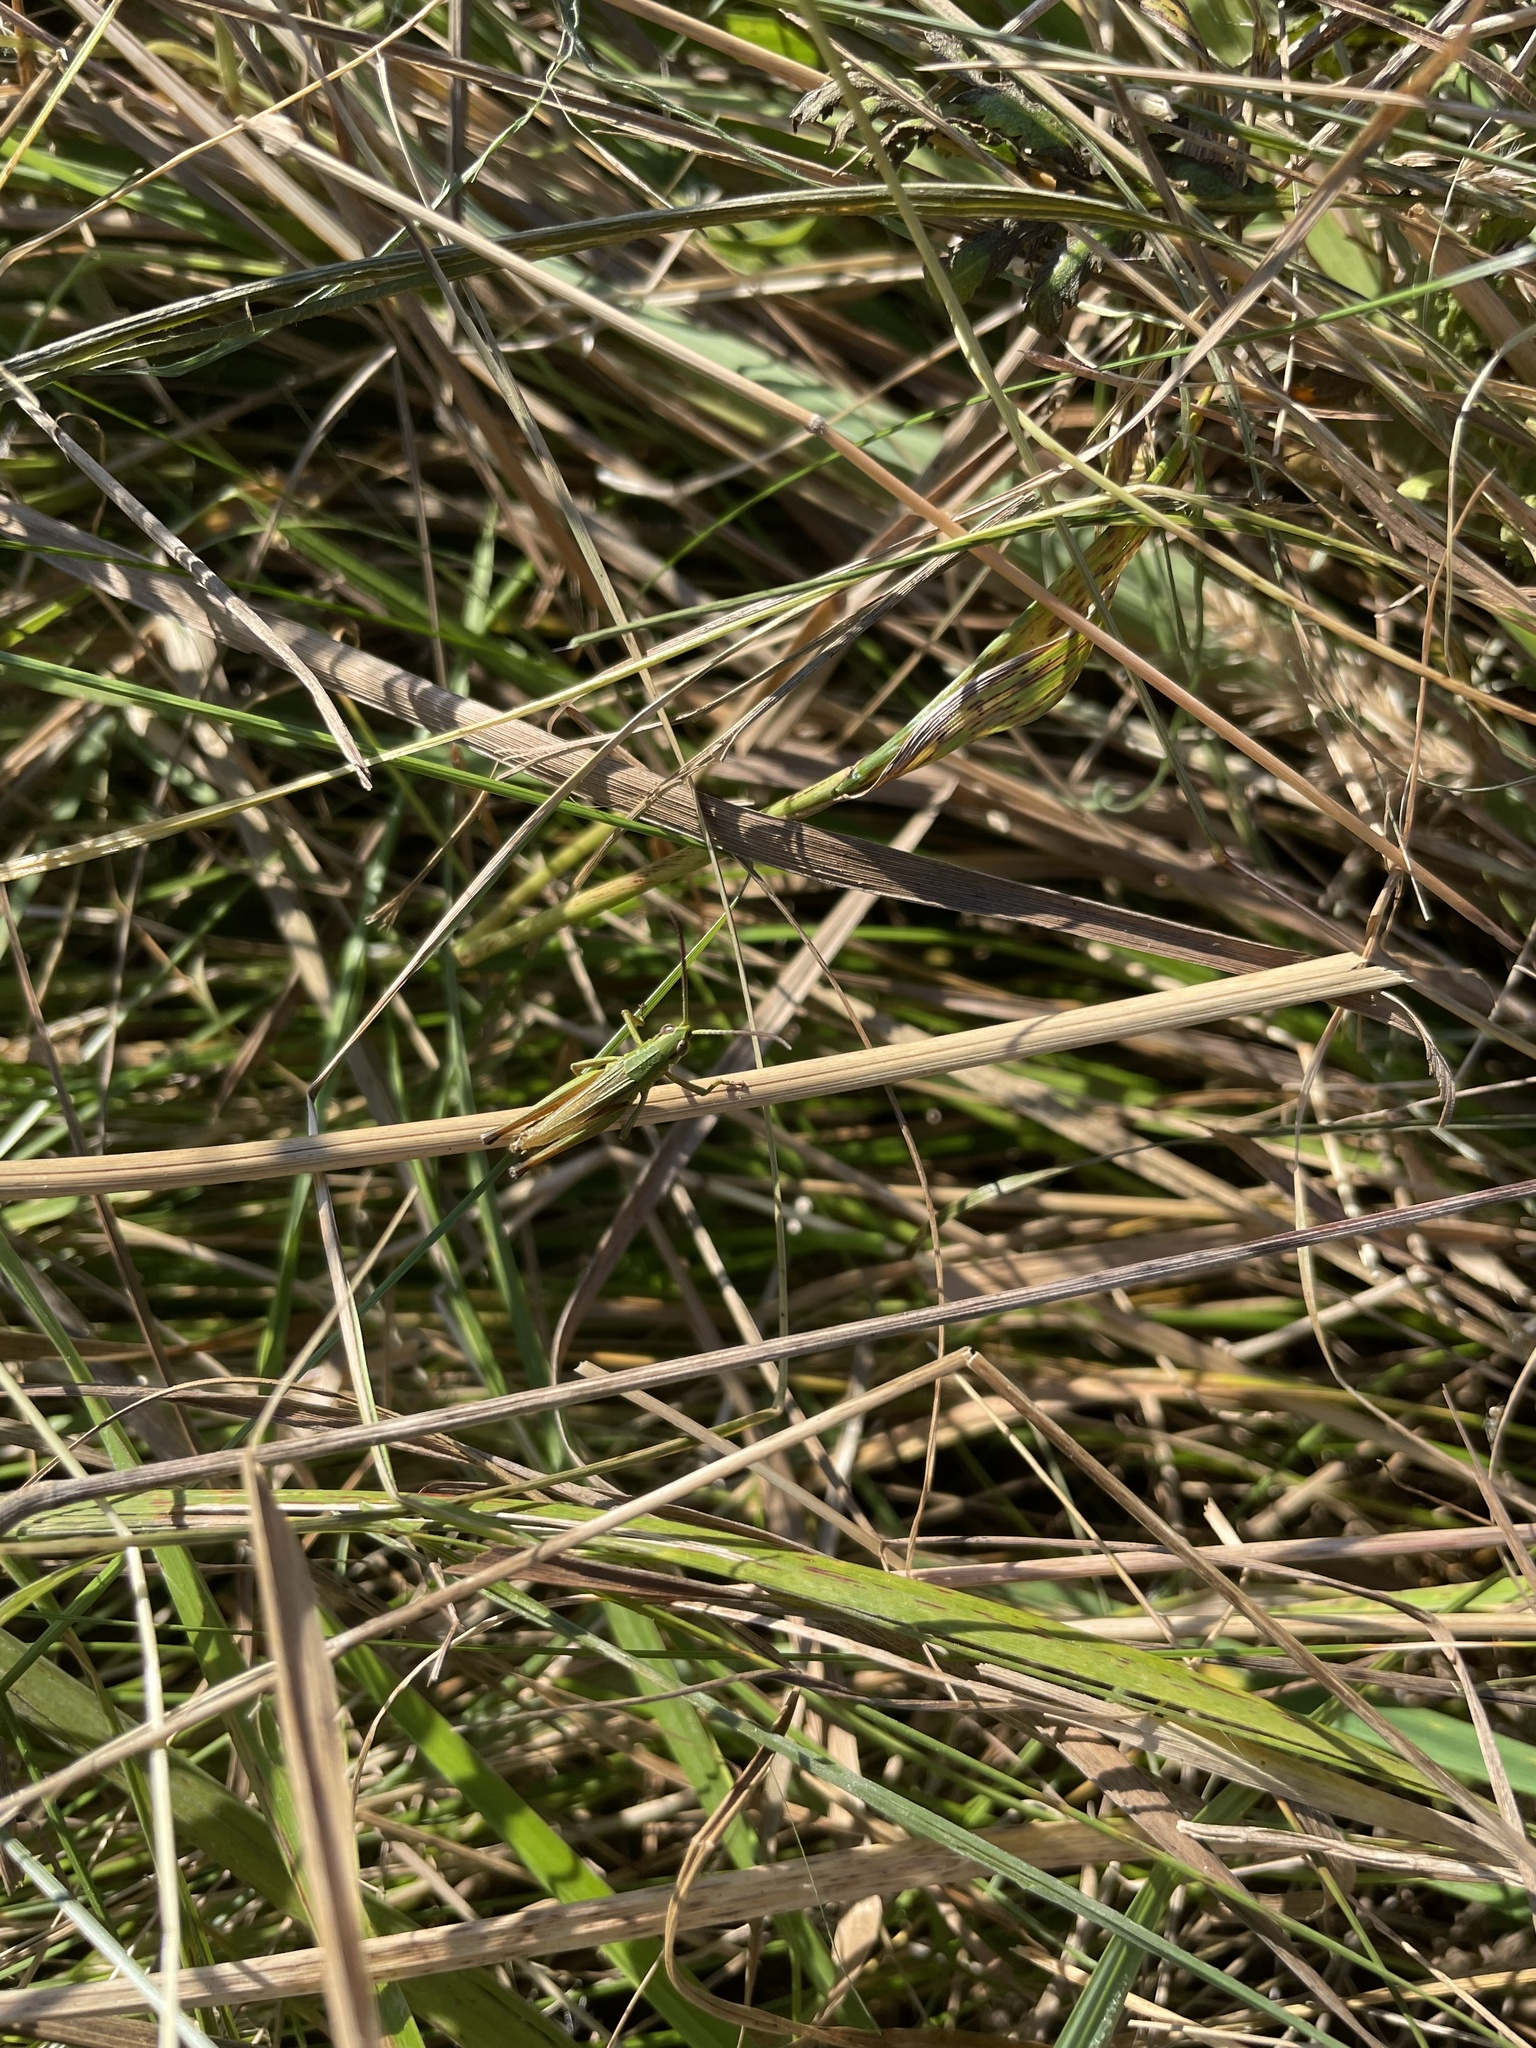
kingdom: Animalia
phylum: Arthropoda
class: Insecta
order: Orthoptera
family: Acrididae
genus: Pseudochorthippus
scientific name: Pseudochorthippus parallelus
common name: Meadow grasshopper
